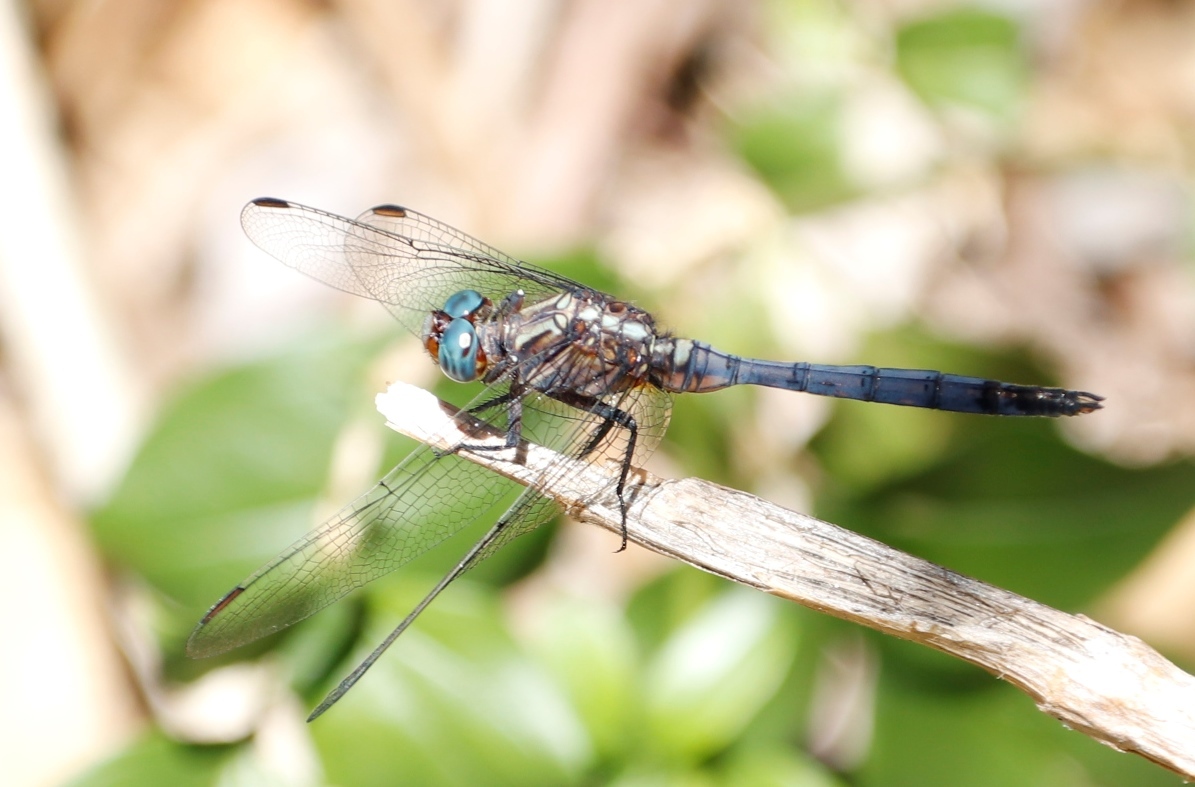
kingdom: Animalia
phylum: Arthropoda
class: Insecta
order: Odonata
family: Libellulidae
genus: Orthetrum
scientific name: Orthetrum julia
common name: Julia skimmer
